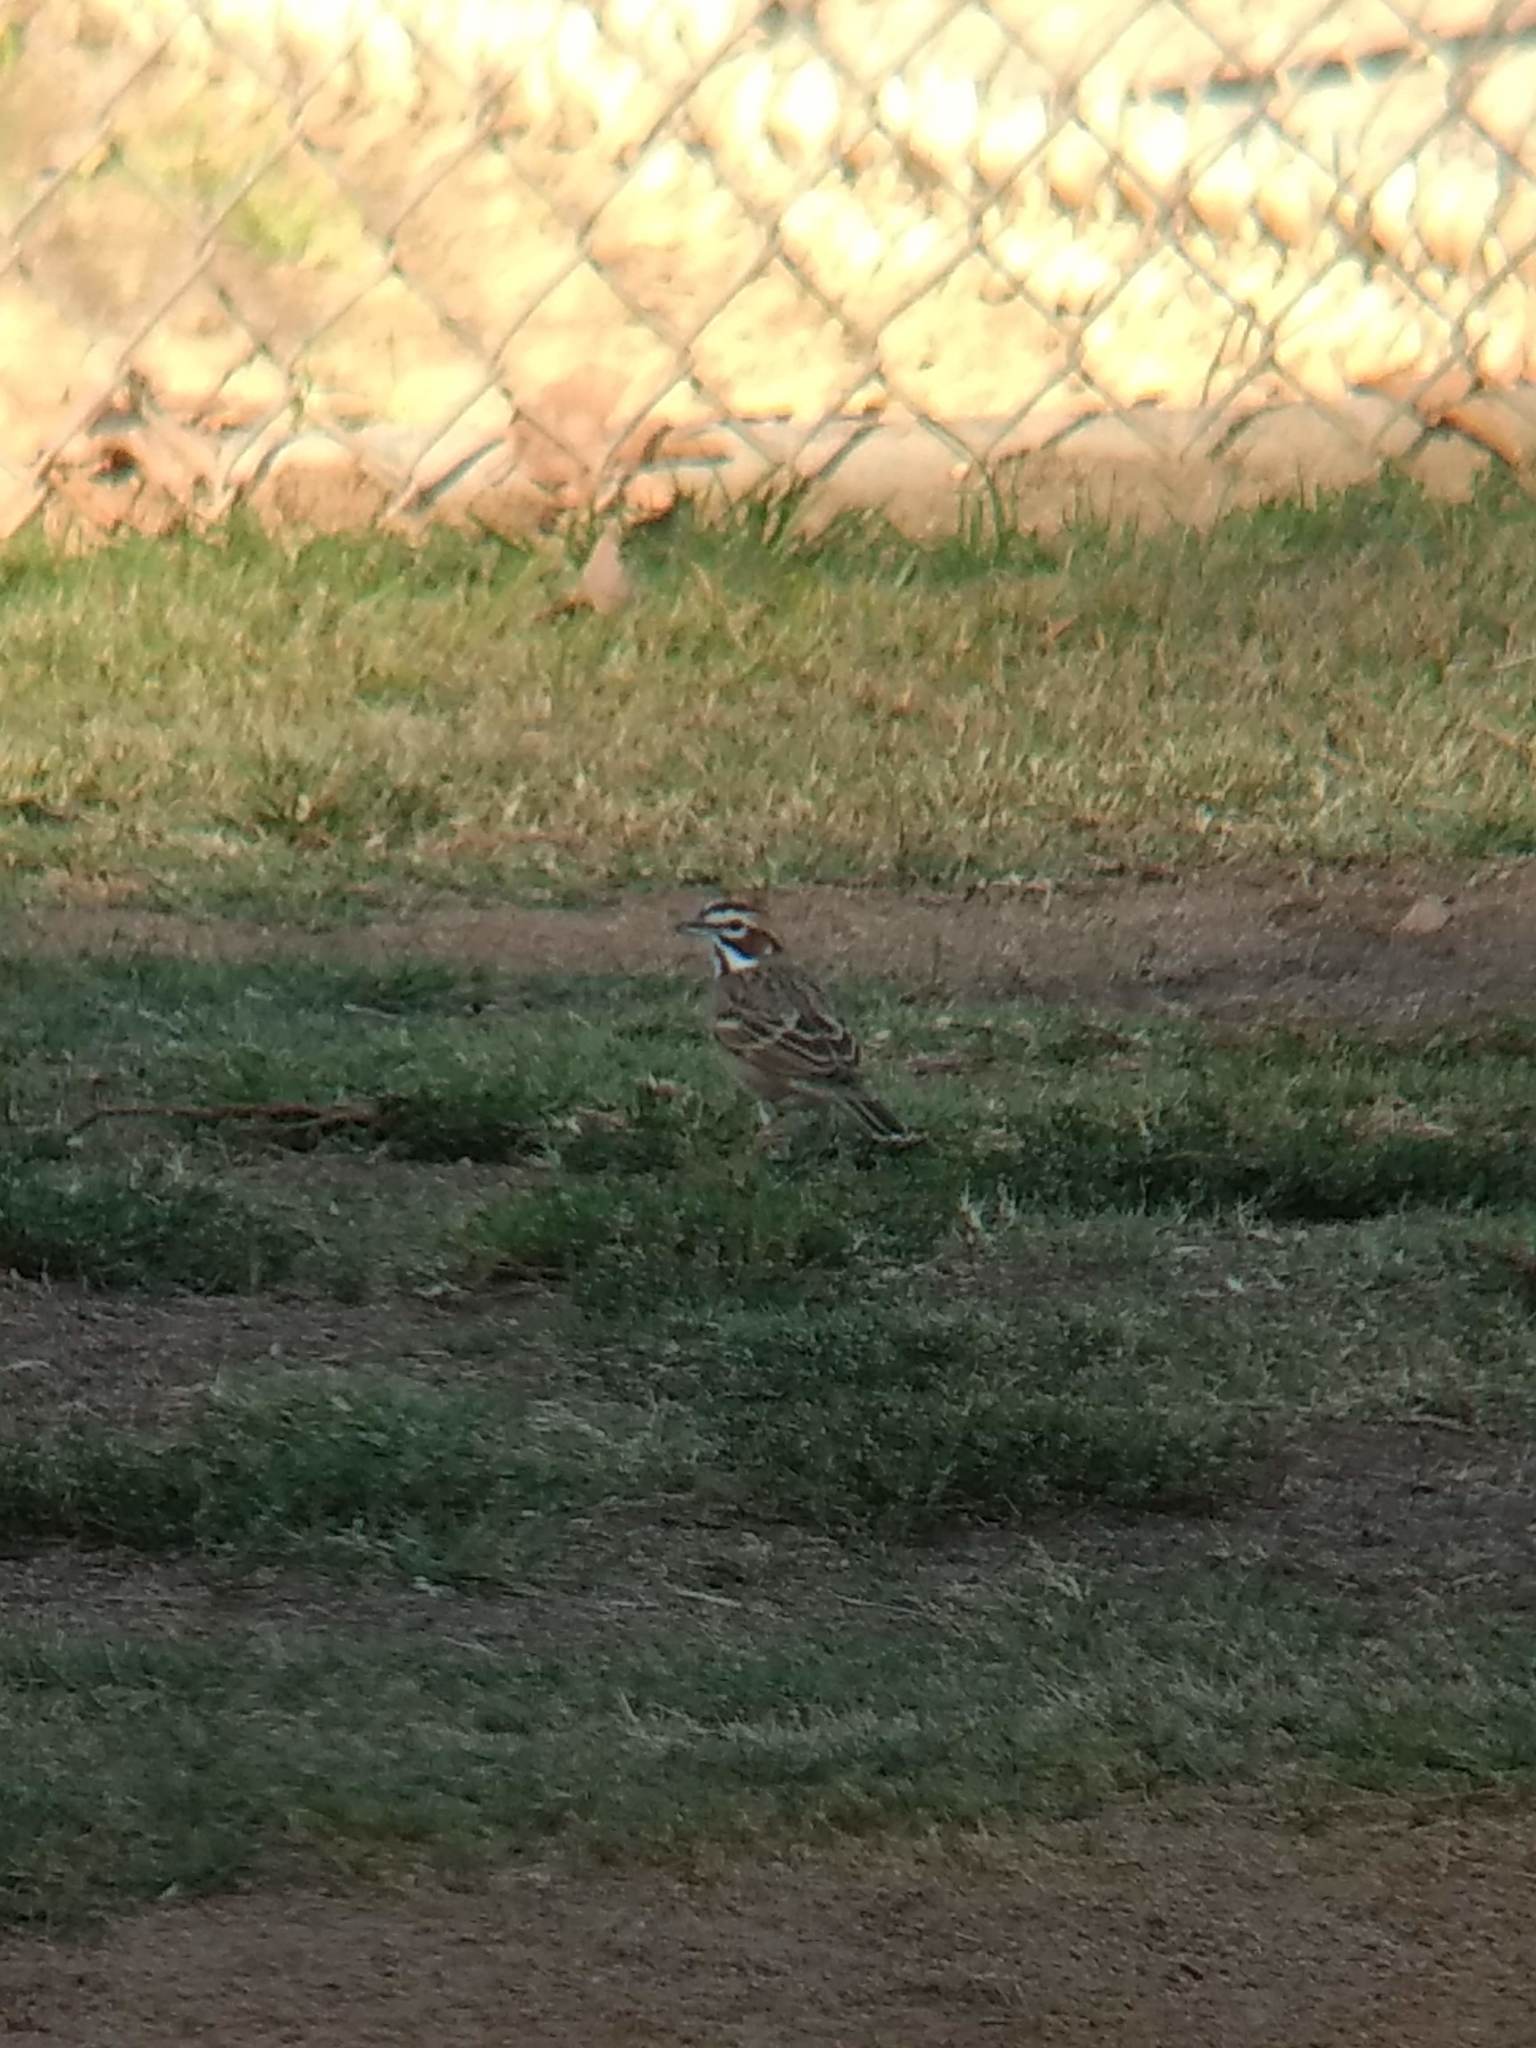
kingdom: Animalia
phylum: Chordata
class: Aves
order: Passeriformes
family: Passerellidae
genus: Chondestes
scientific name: Chondestes grammacus
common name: Lark sparrow
